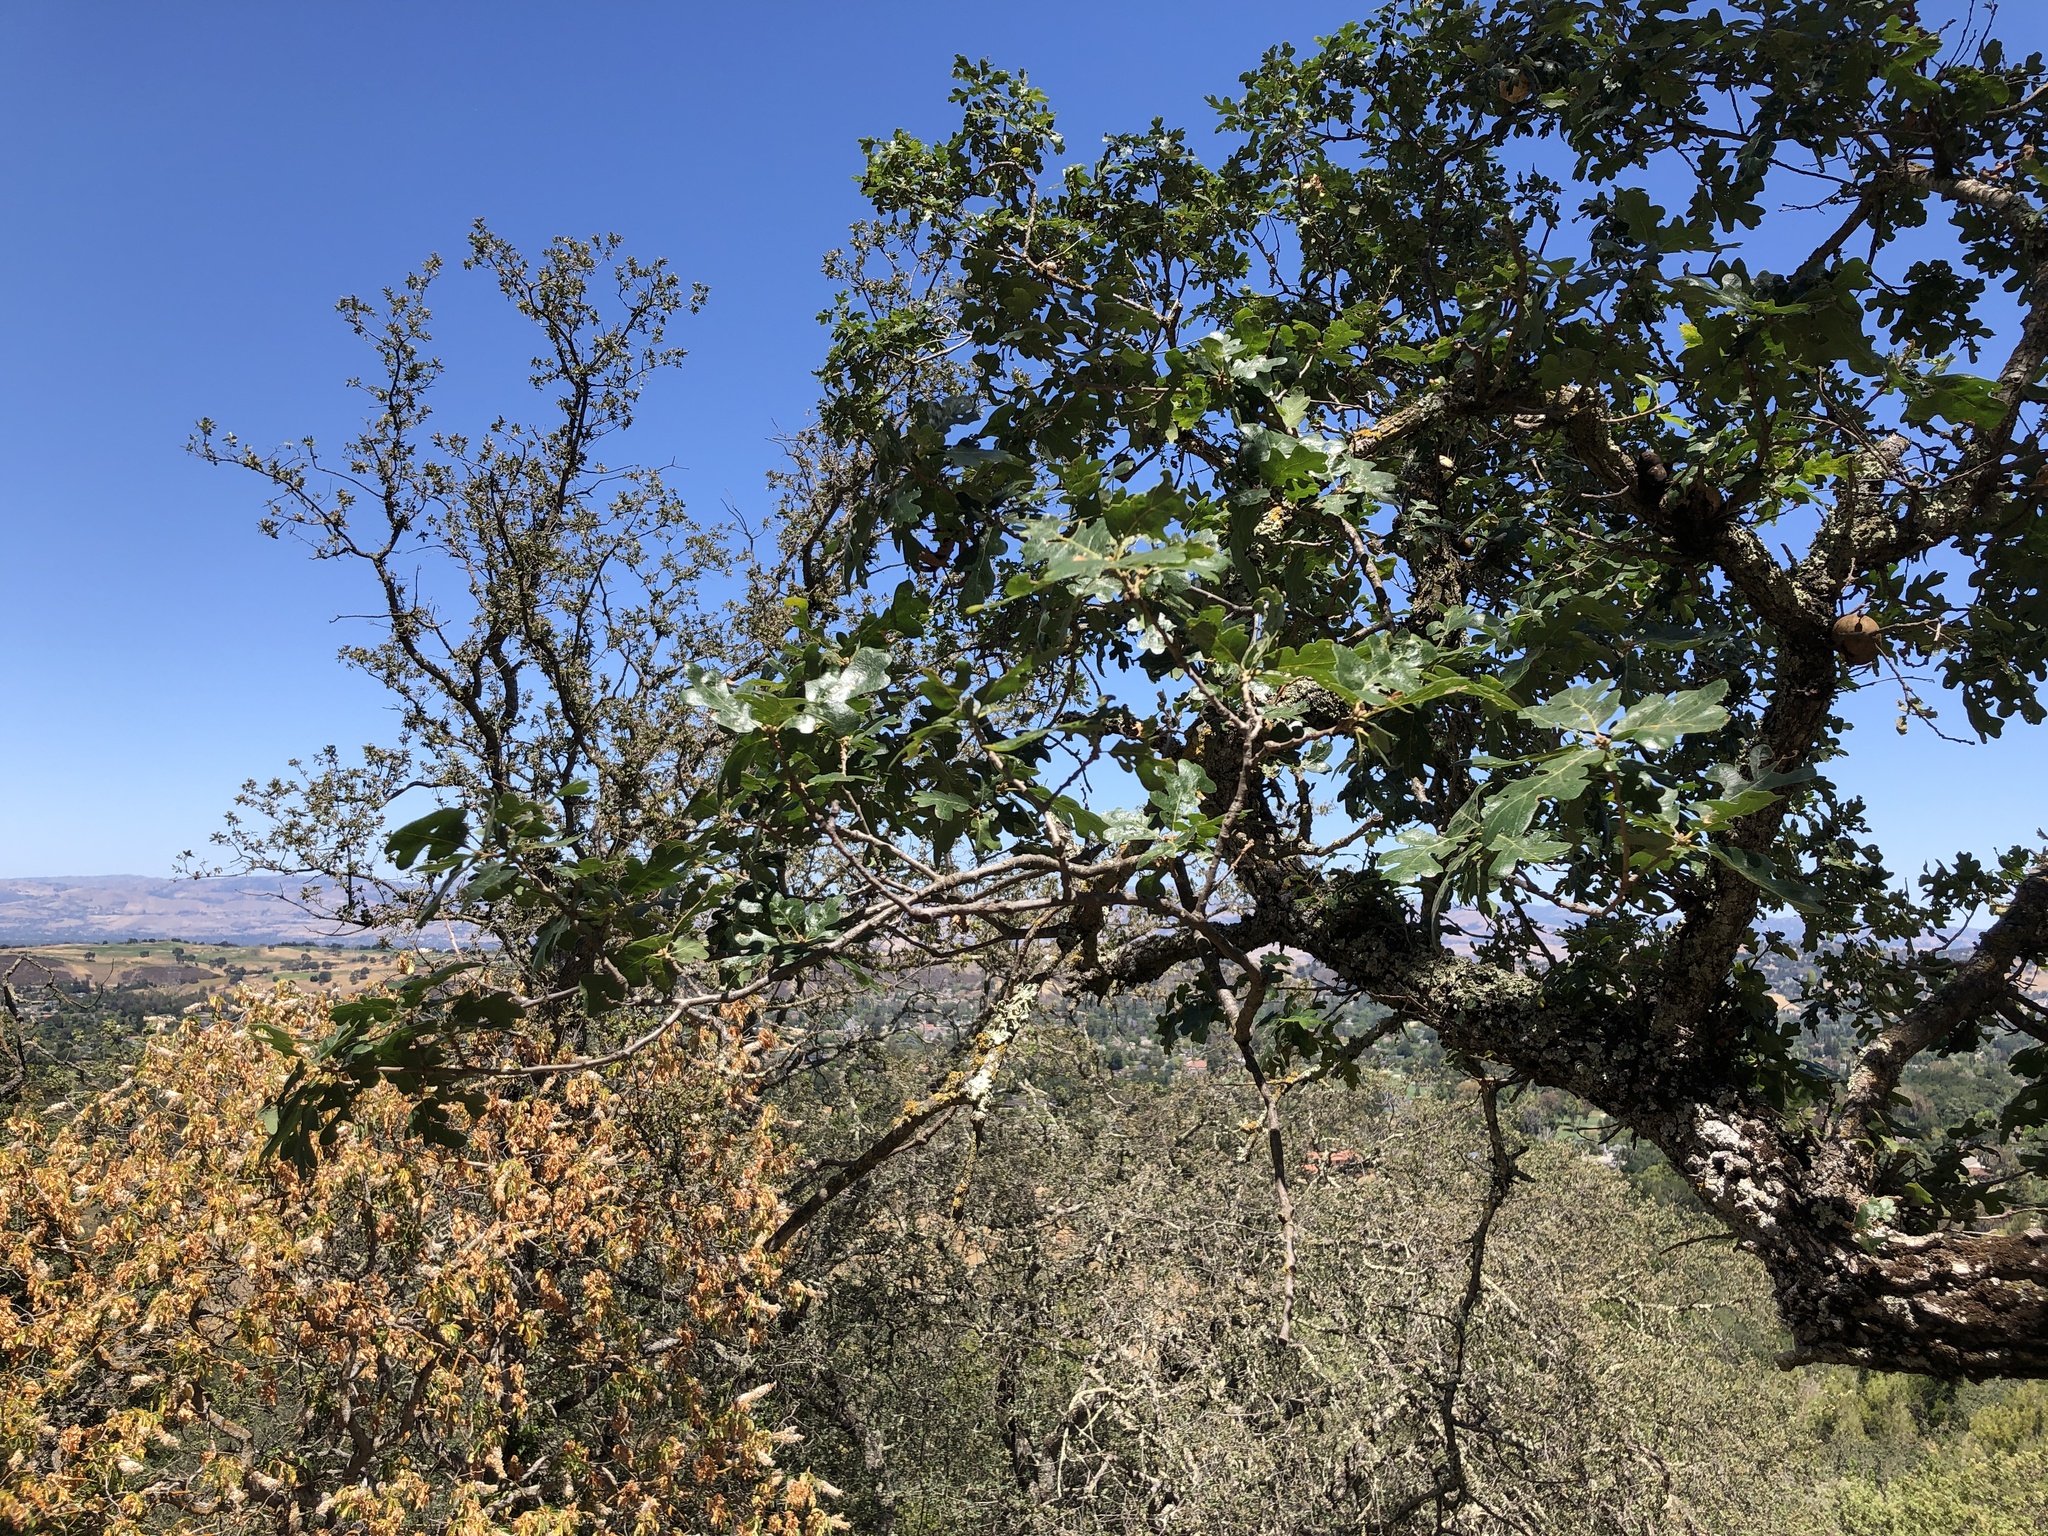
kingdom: Plantae
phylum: Tracheophyta
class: Magnoliopsida
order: Fagales
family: Fagaceae
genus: Quercus
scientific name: Quercus lobata
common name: Valley oak
